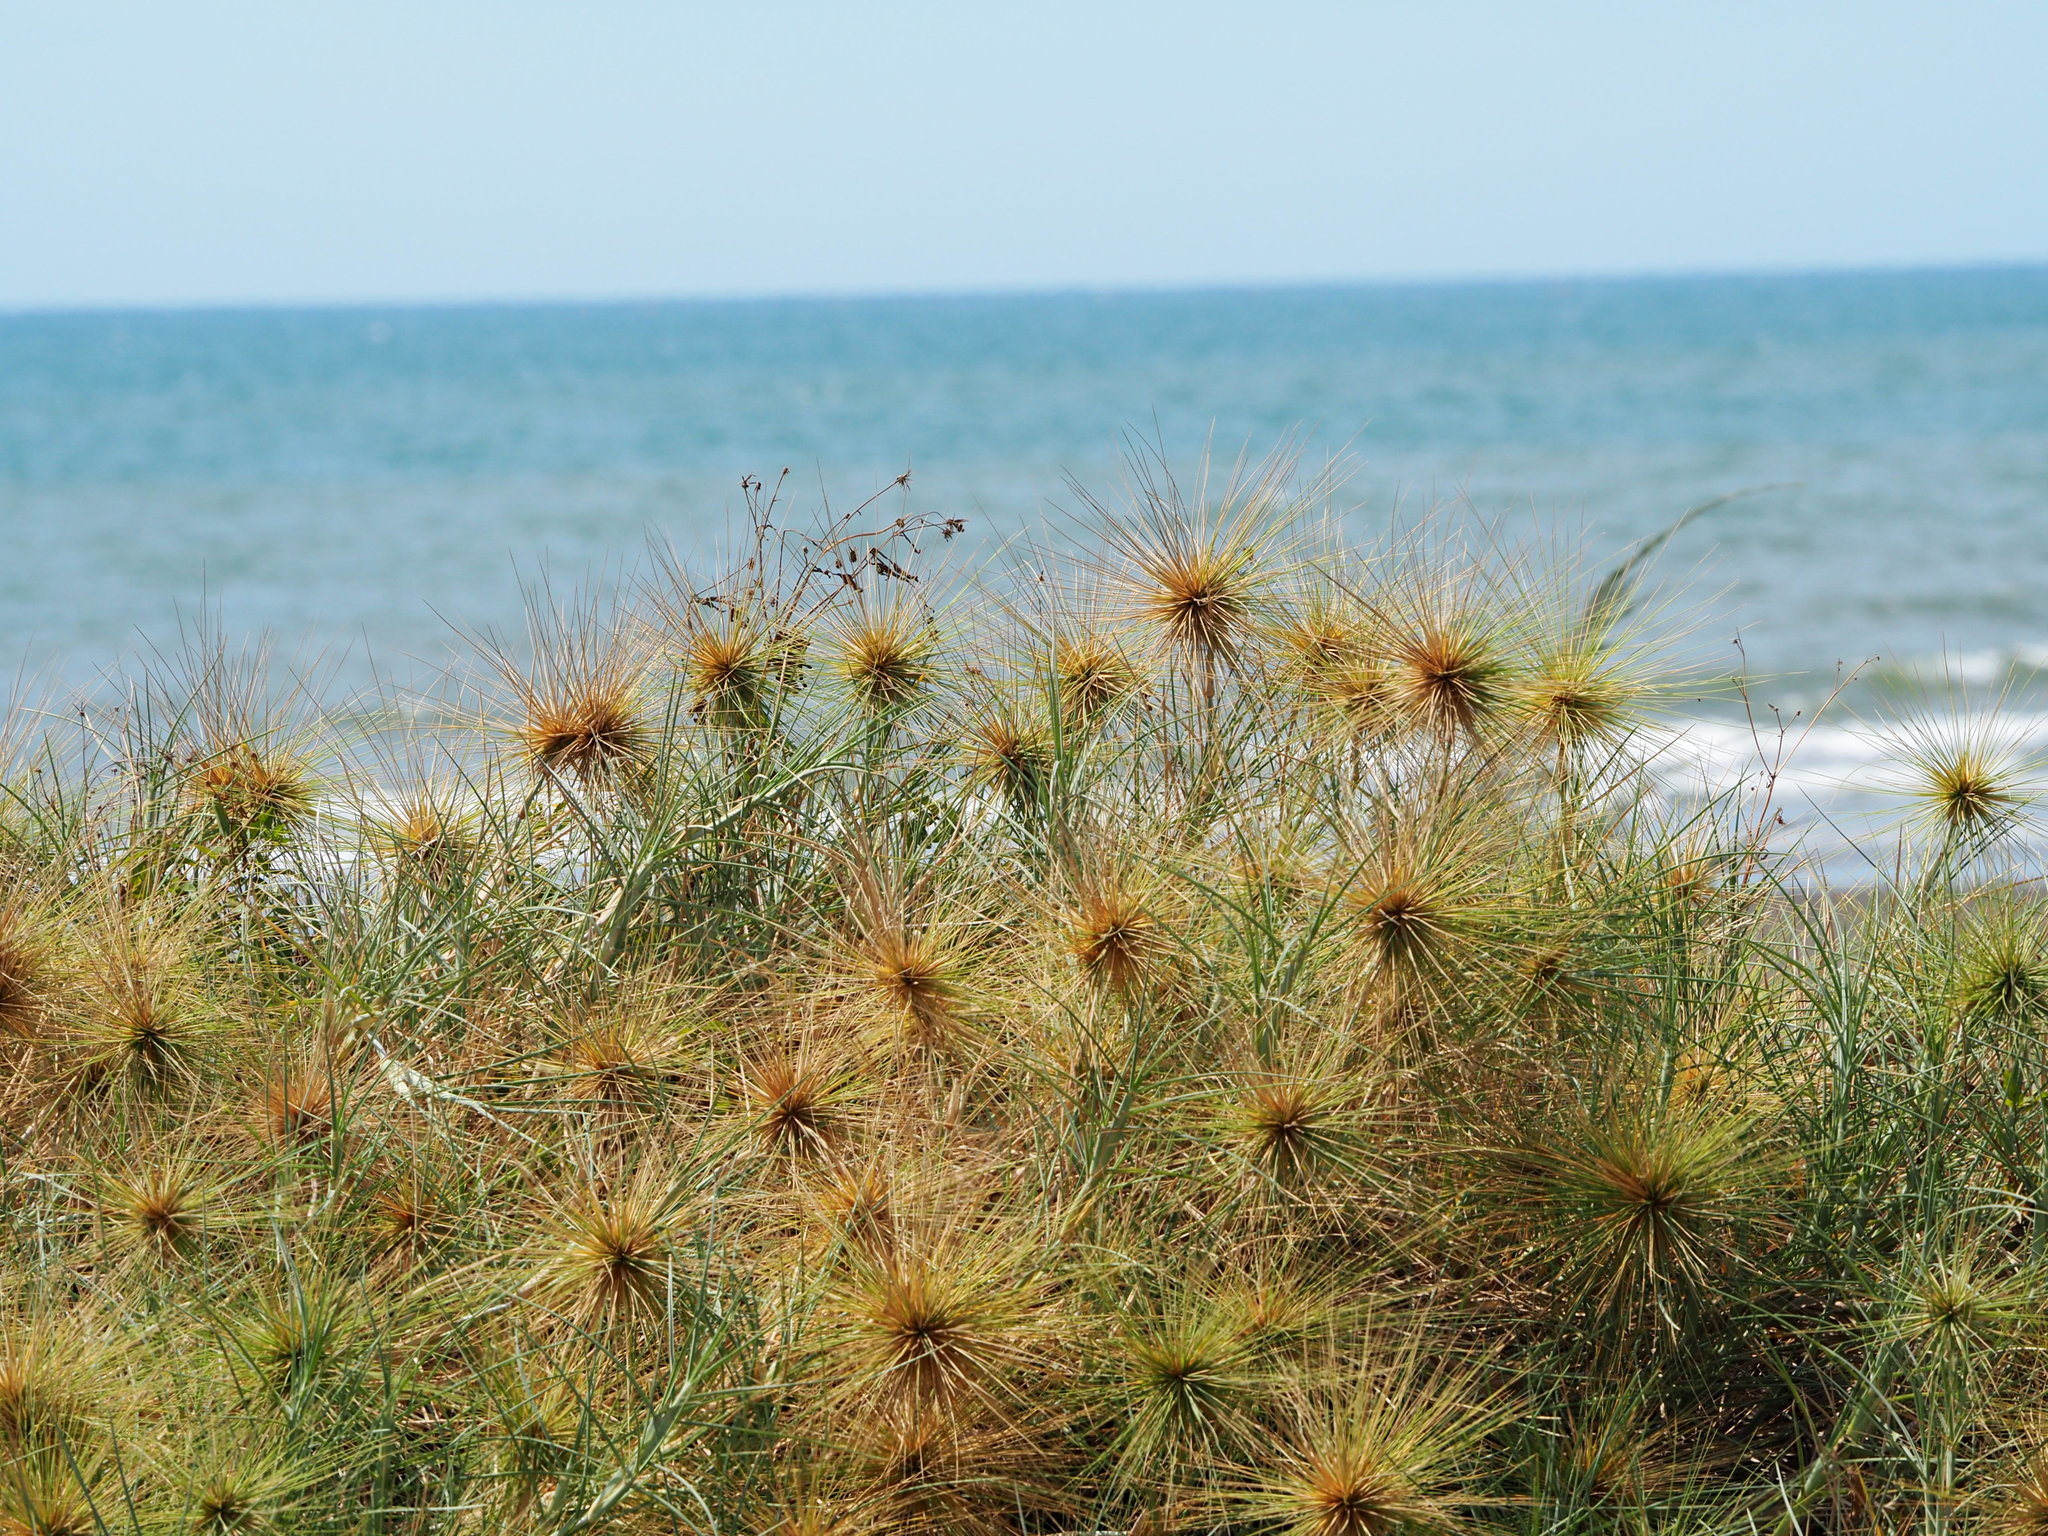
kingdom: Plantae
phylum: Tracheophyta
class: Liliopsida
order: Poales
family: Poaceae
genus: Spinifex
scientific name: Spinifex littoreus
